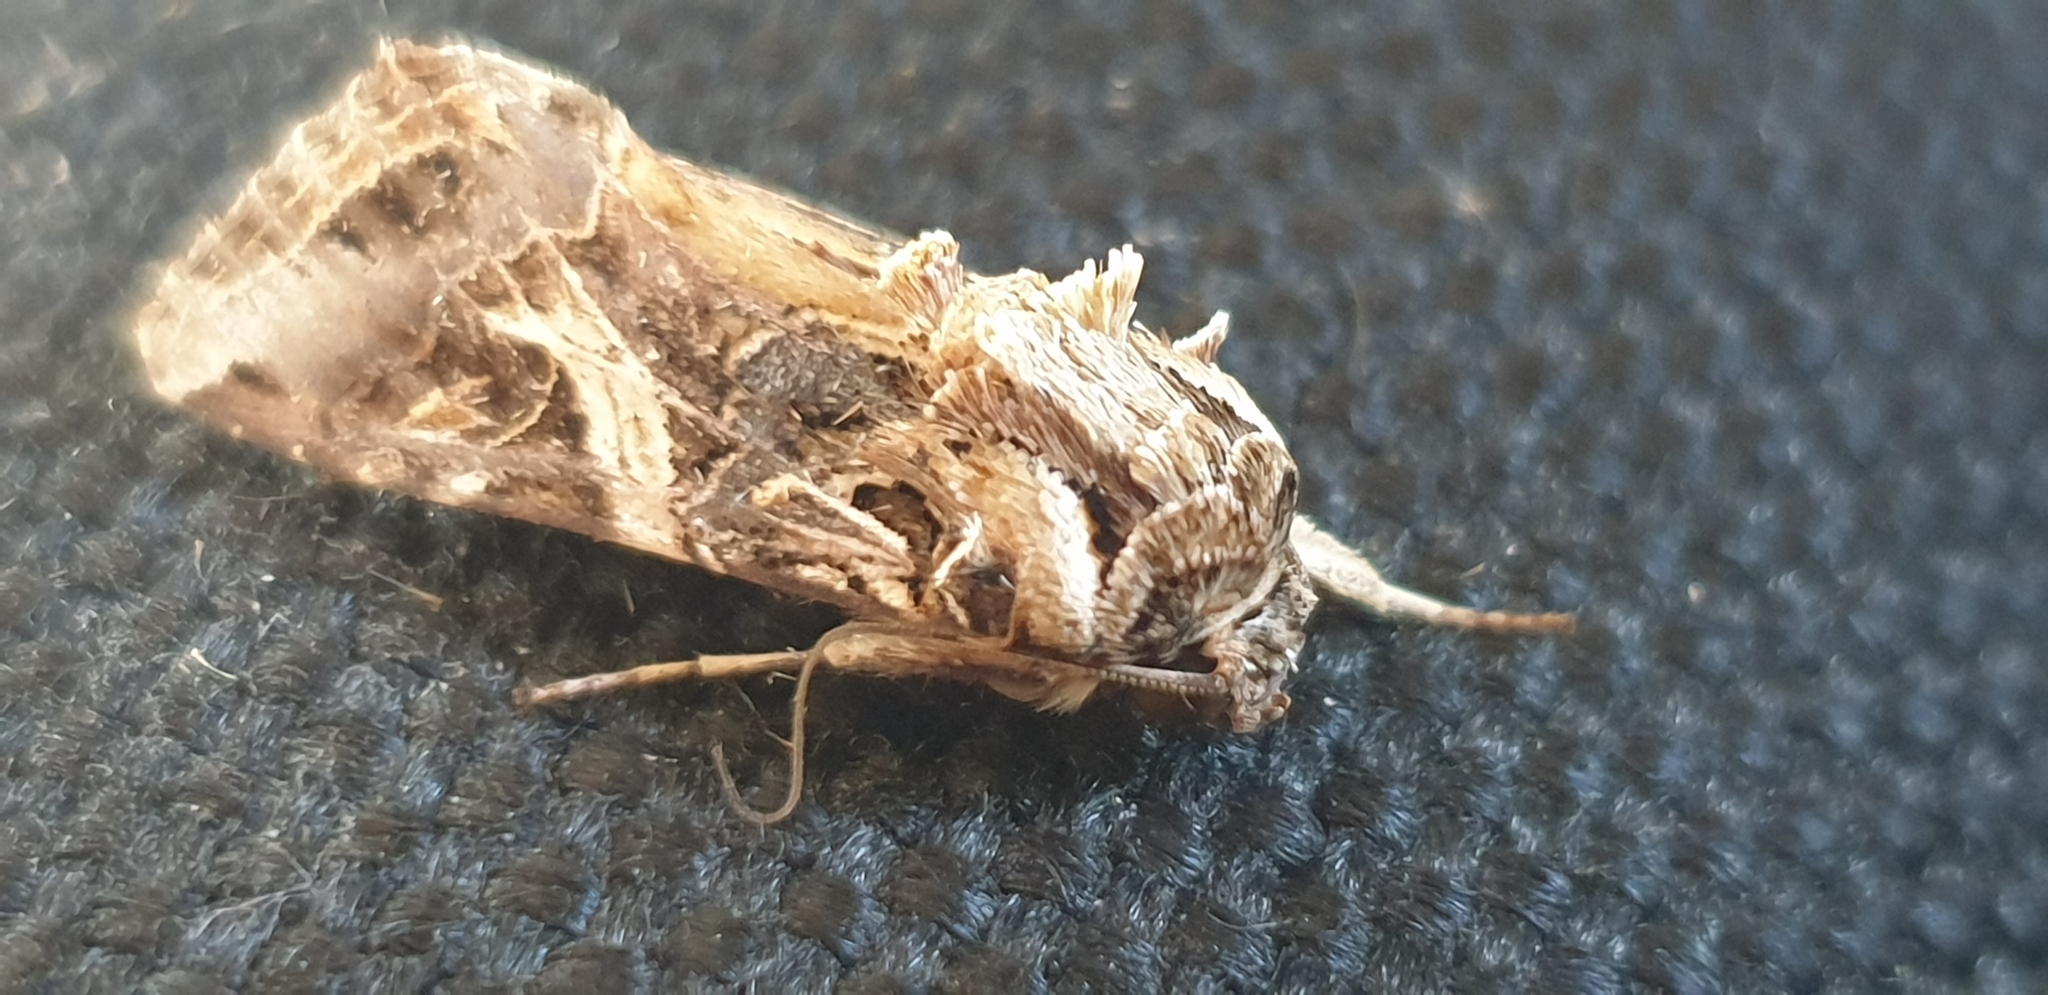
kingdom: Animalia
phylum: Arthropoda
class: Insecta
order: Lepidoptera
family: Noctuidae
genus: Spodoptera
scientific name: Spodoptera litura
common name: Asian cotton leafworm
